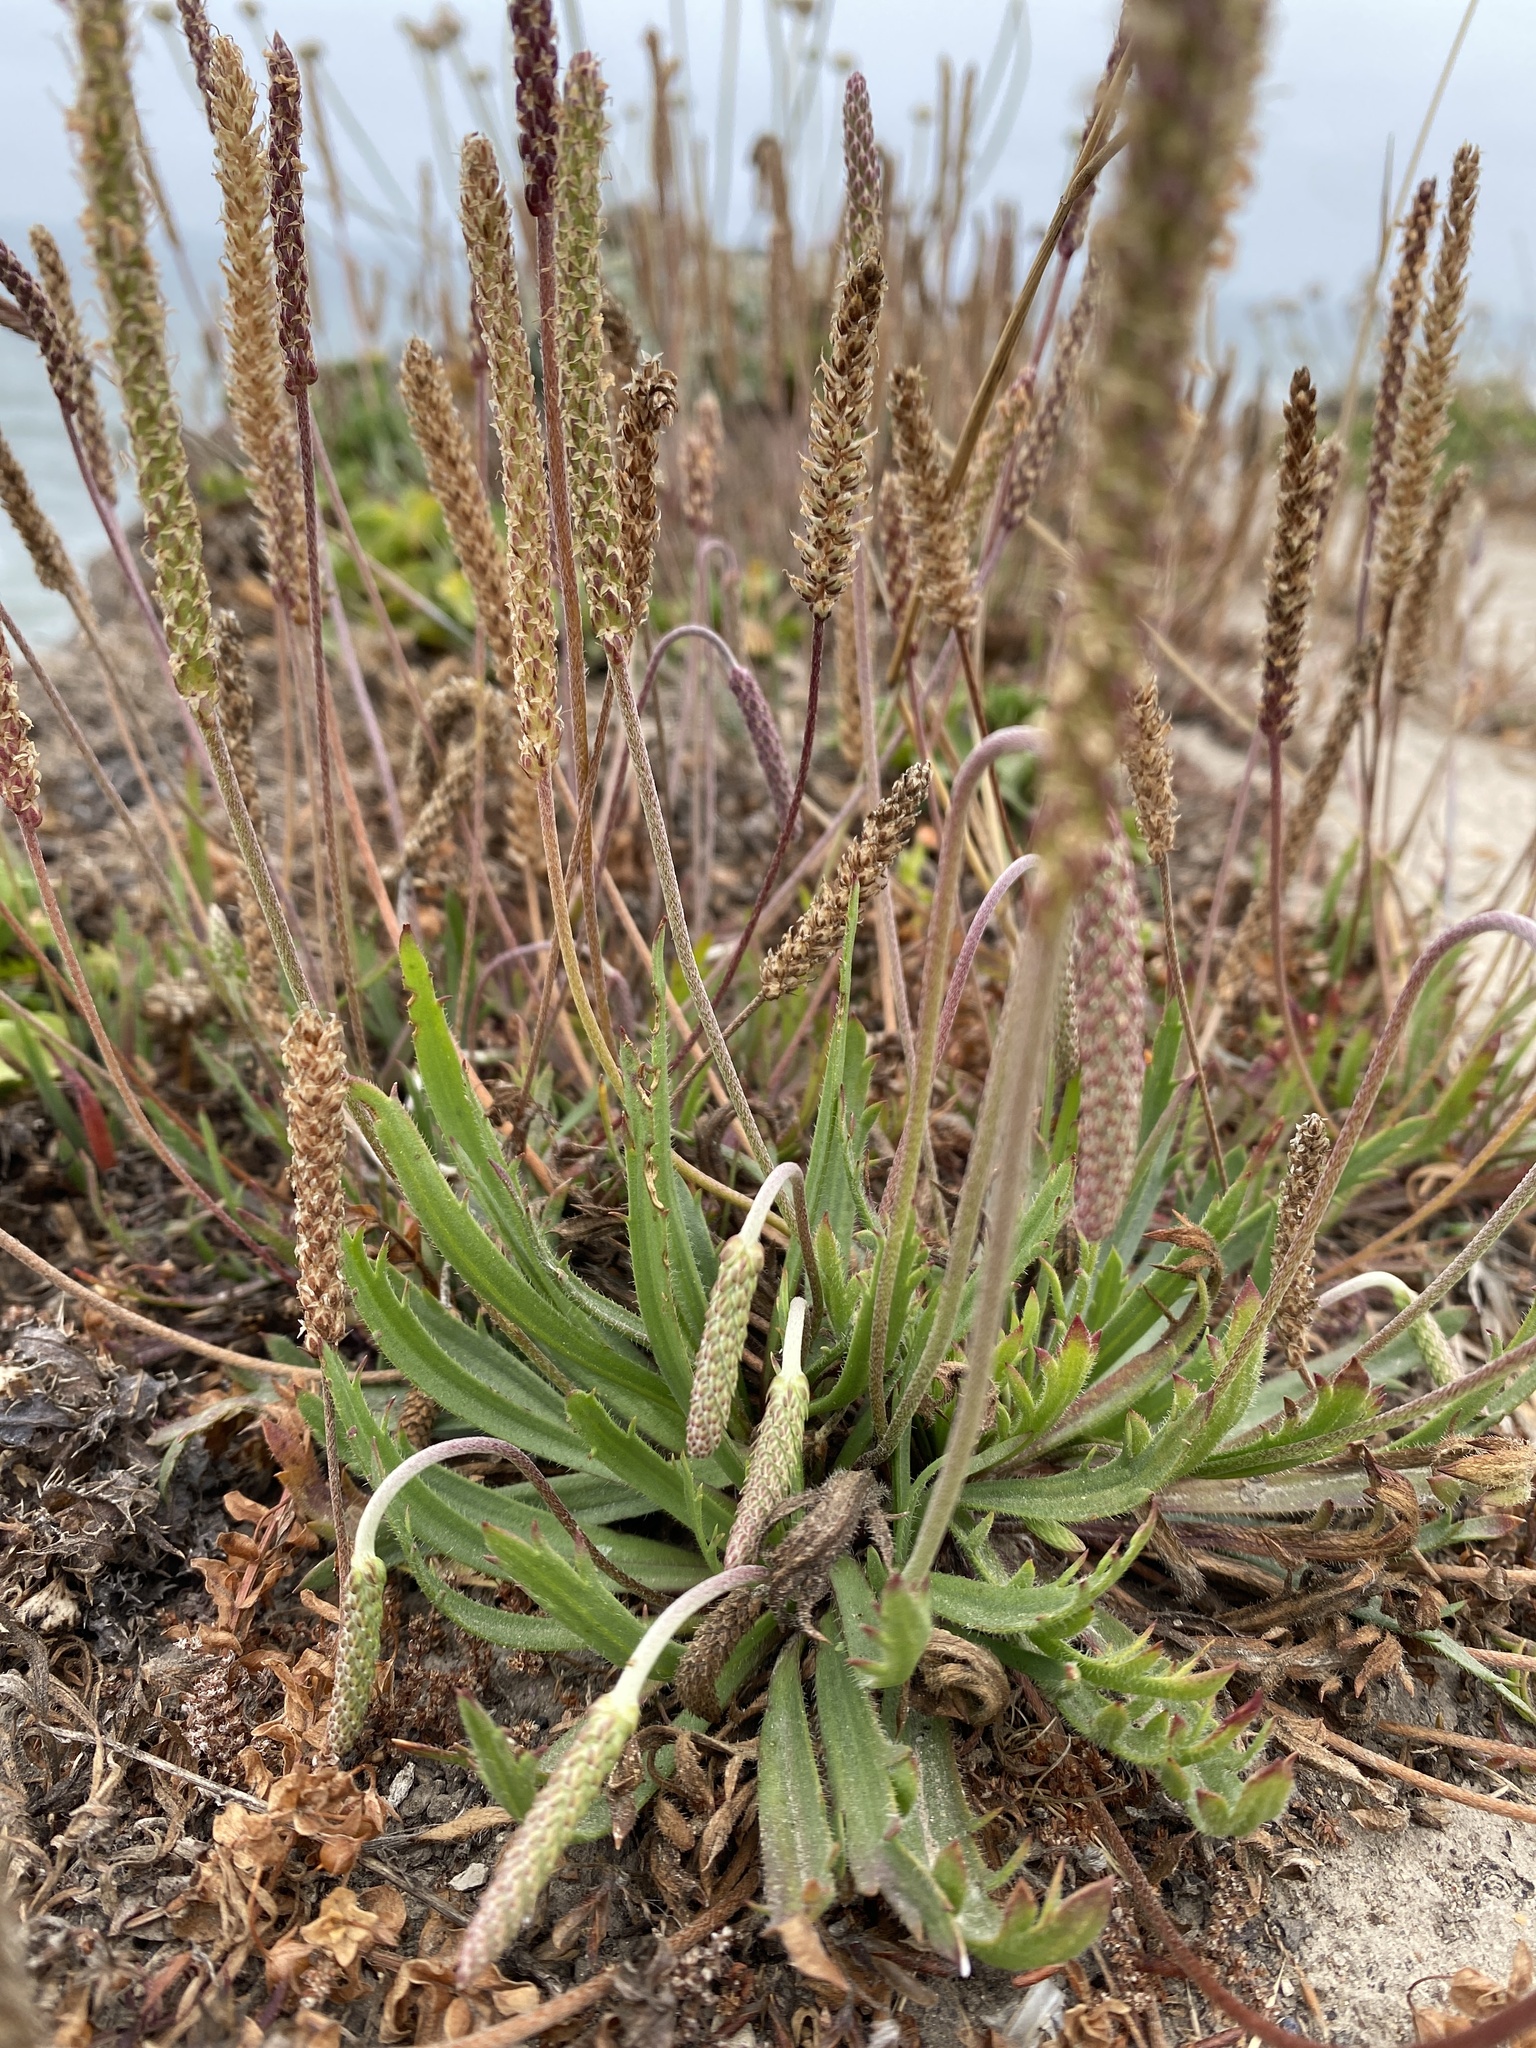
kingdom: Plantae
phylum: Tracheophyta
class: Magnoliopsida
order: Lamiales
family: Plantaginaceae
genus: Plantago
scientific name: Plantago coronopus
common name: Buck's-horn plantain
